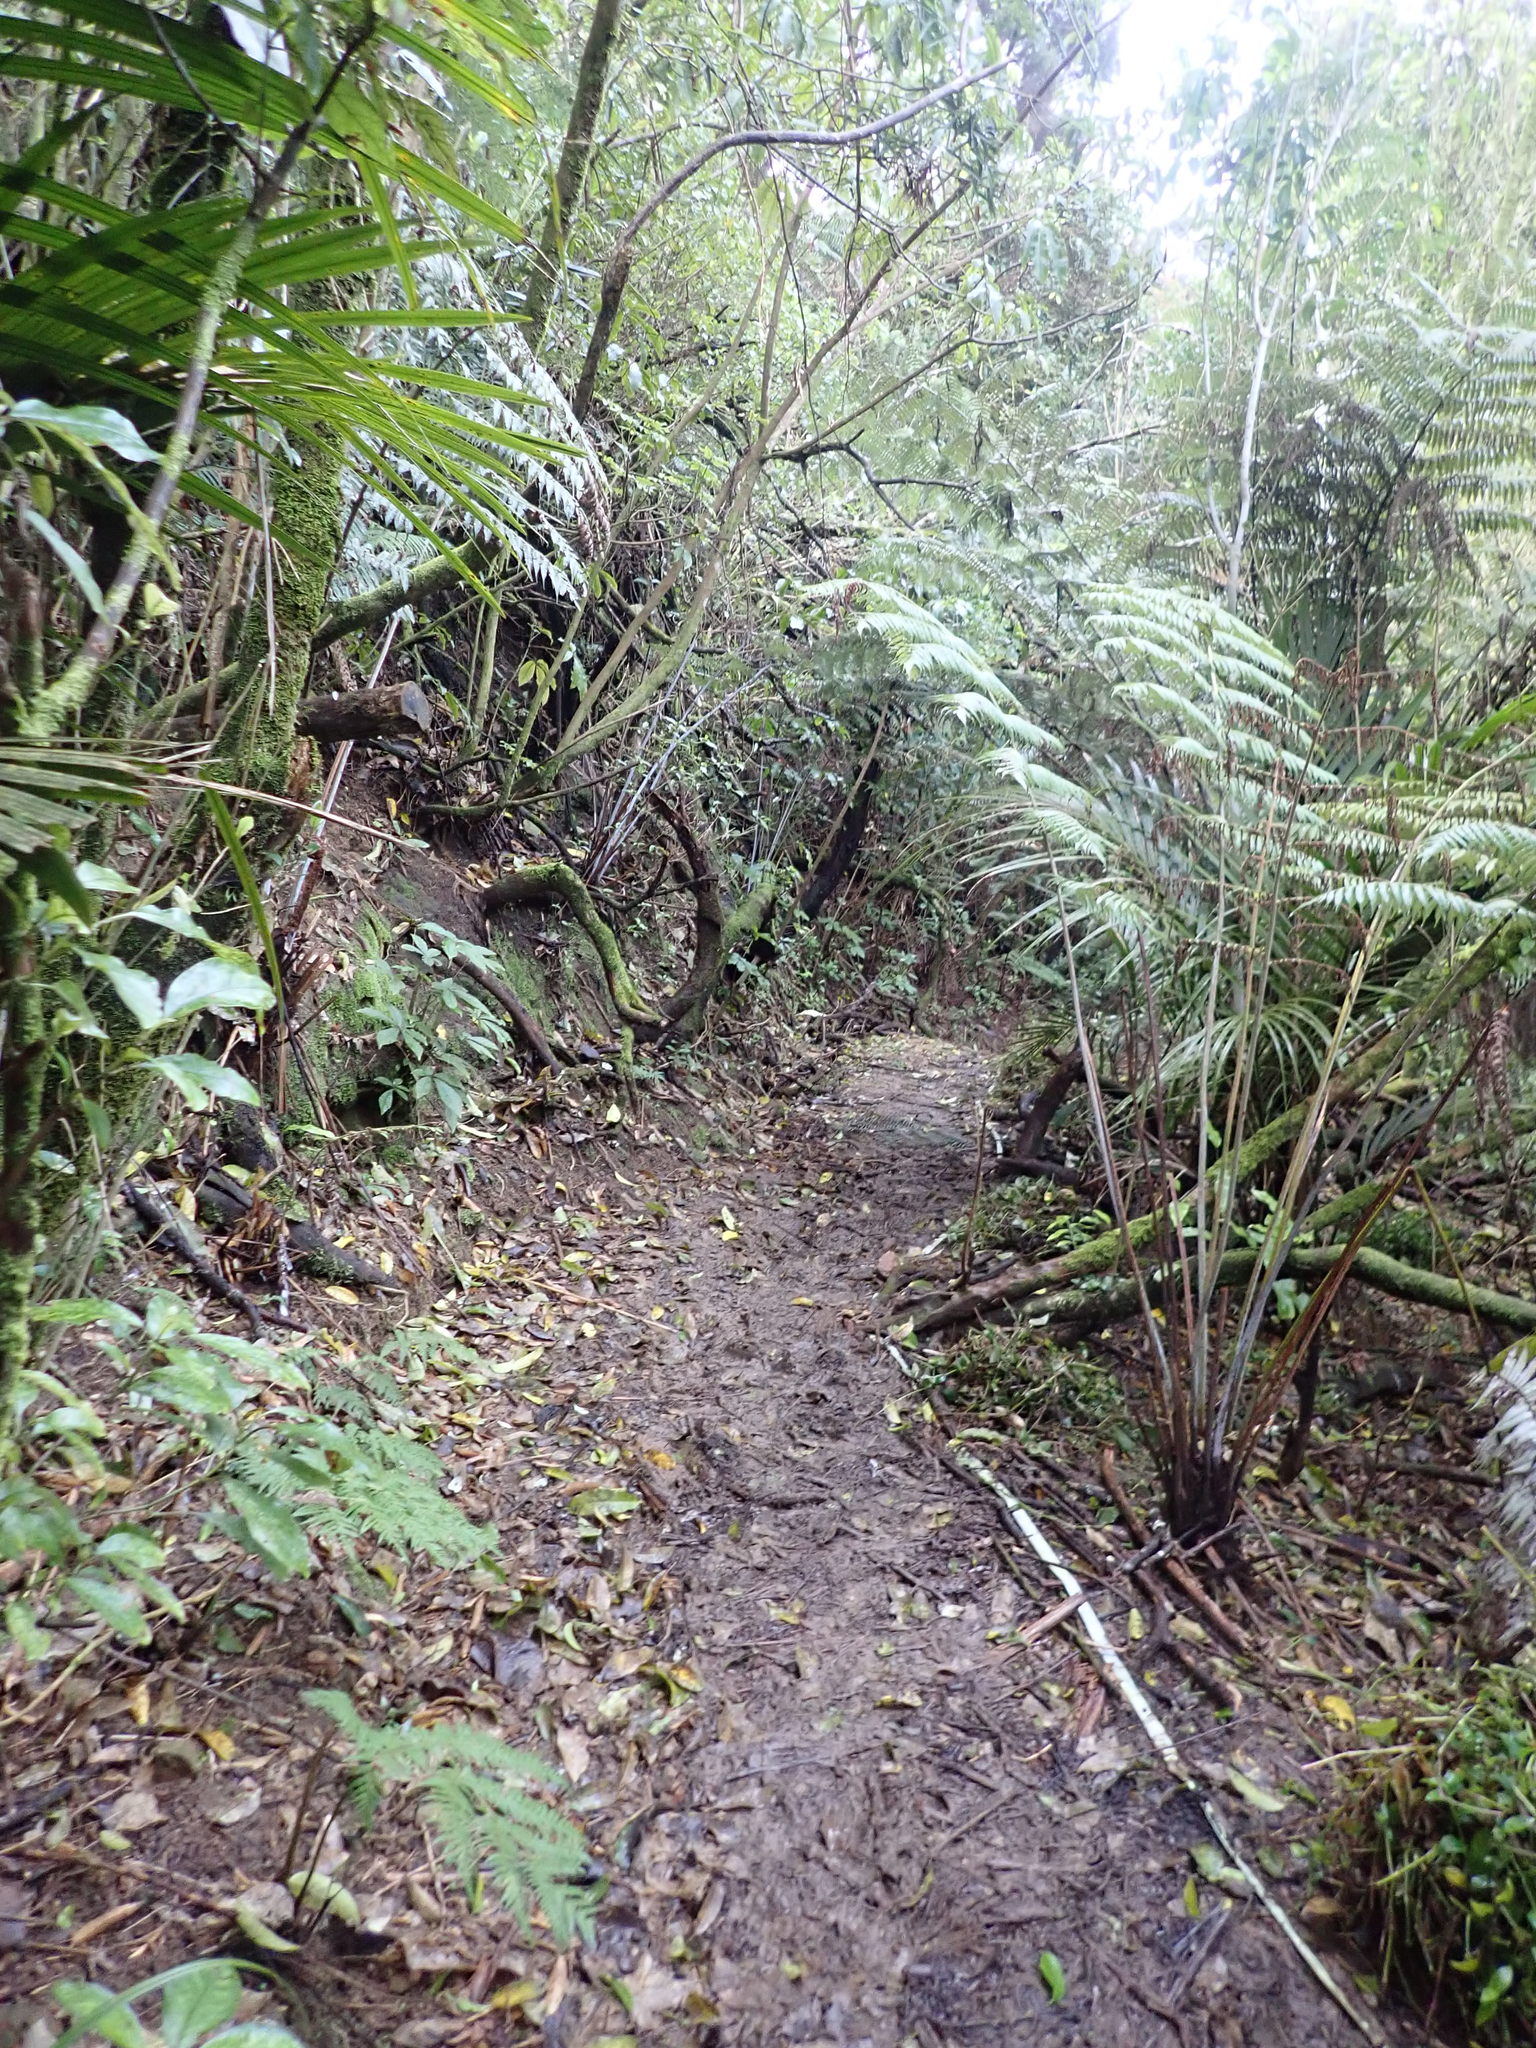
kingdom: Plantae
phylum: Tracheophyta
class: Polypodiopsida
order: Cyatheales
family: Cyatheaceae
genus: Alsophila
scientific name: Alsophila dealbata
